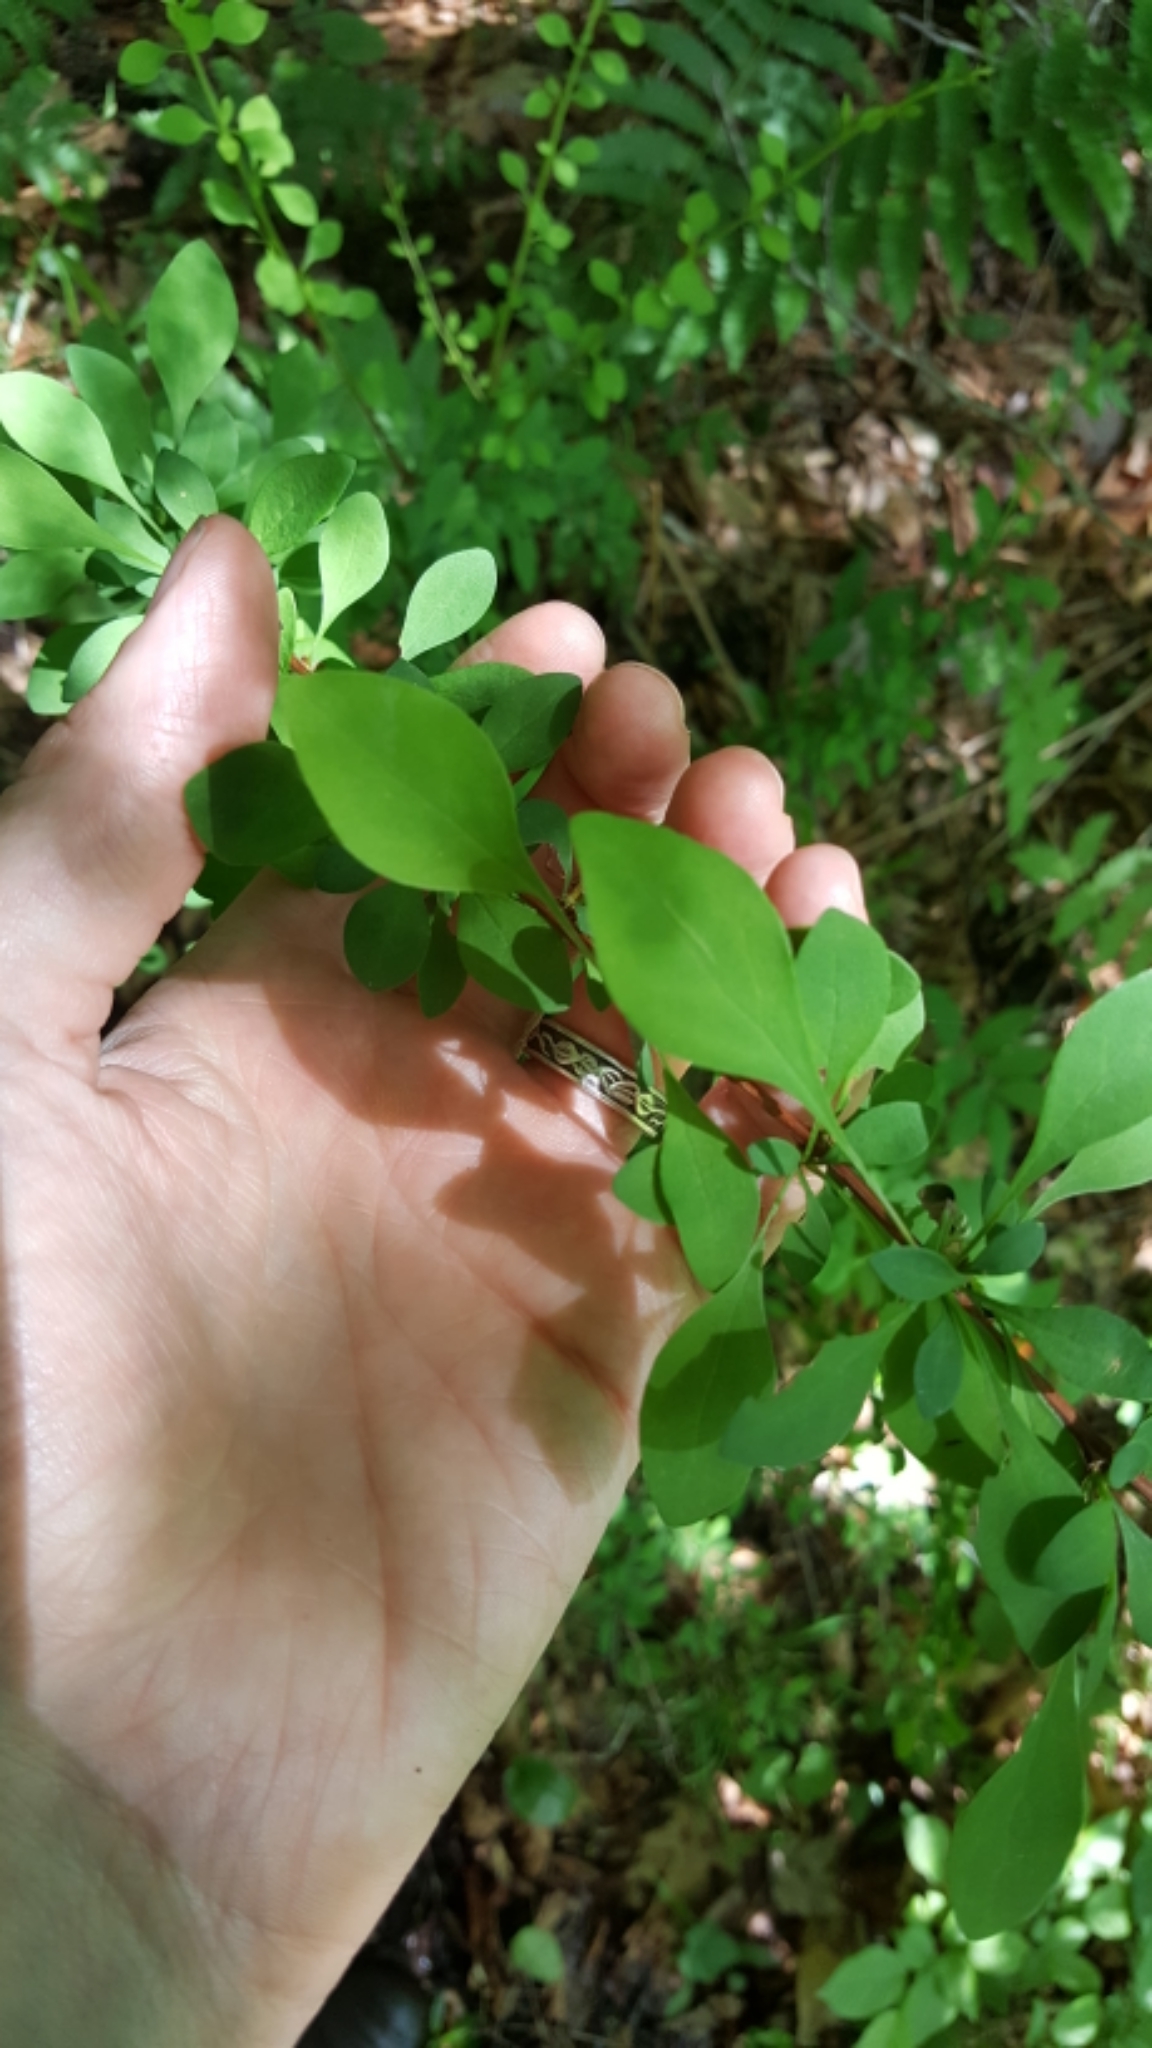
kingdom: Plantae
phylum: Tracheophyta
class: Magnoliopsida
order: Ranunculales
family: Berberidaceae
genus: Berberis
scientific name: Berberis thunbergii
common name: Japanese barberry
